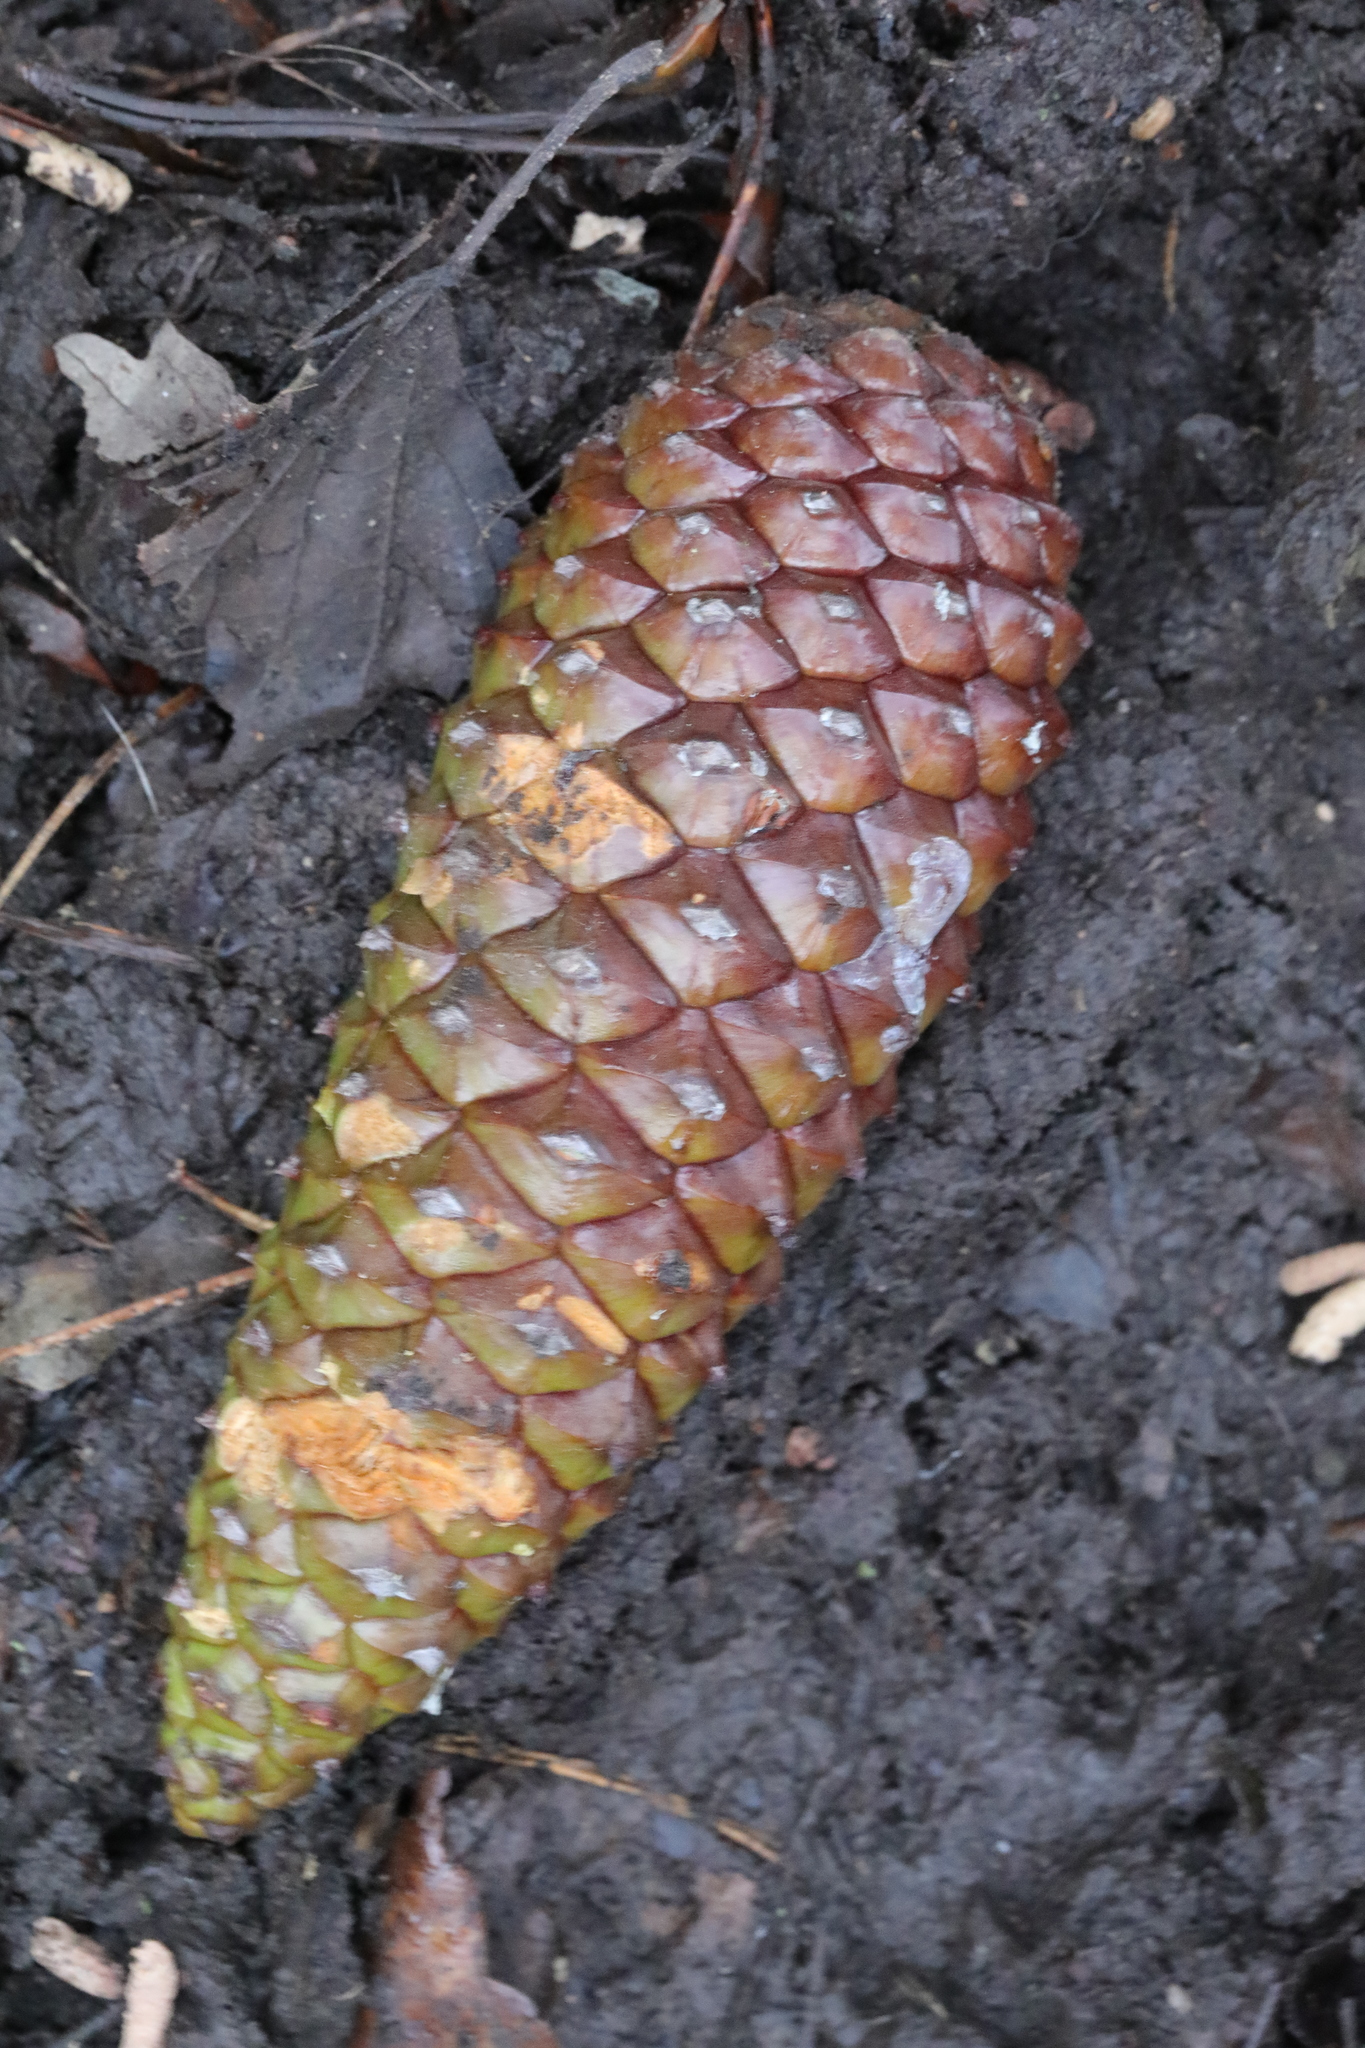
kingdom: Plantae
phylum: Tracheophyta
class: Pinopsida
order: Pinales
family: Pinaceae
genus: Pinus
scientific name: Pinus pinaster
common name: Maritime pine
